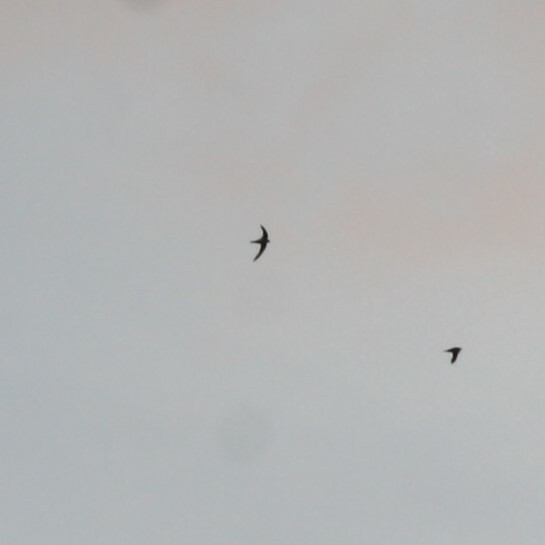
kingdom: Animalia
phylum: Chordata
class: Aves
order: Apodiformes
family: Apodidae
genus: Tachymarptis
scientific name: Tachymarptis melba
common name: Alpine swift
